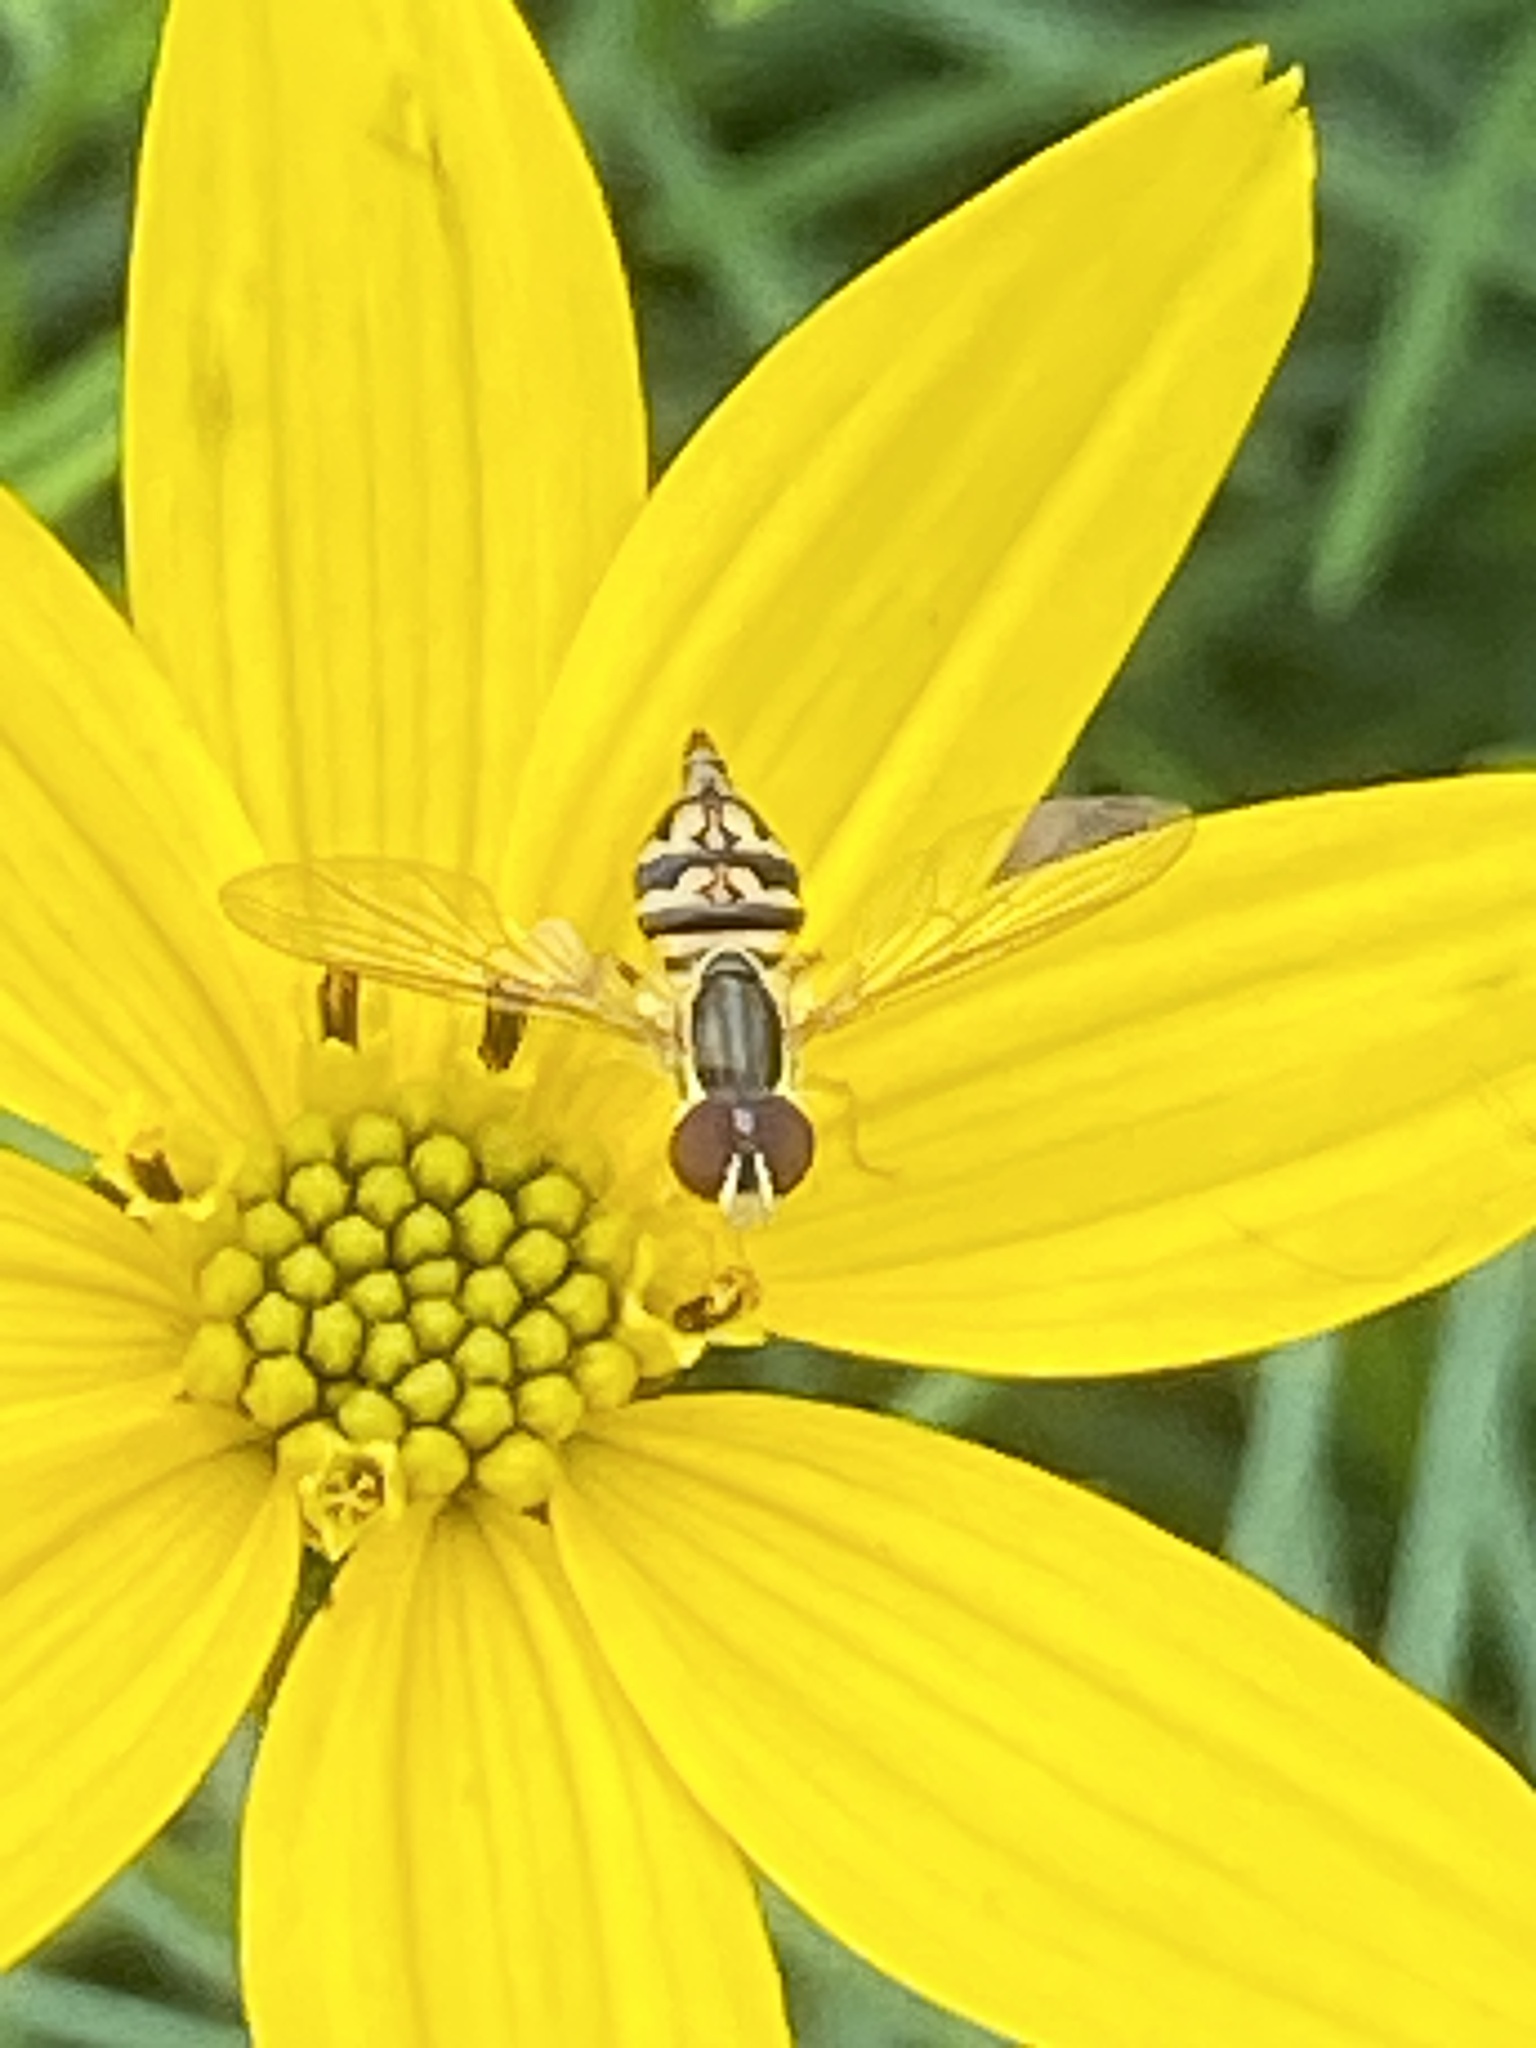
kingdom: Animalia
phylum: Arthropoda
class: Insecta
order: Diptera
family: Syrphidae
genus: Toxomerus
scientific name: Toxomerus geminatus
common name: Eastern calligrapher
